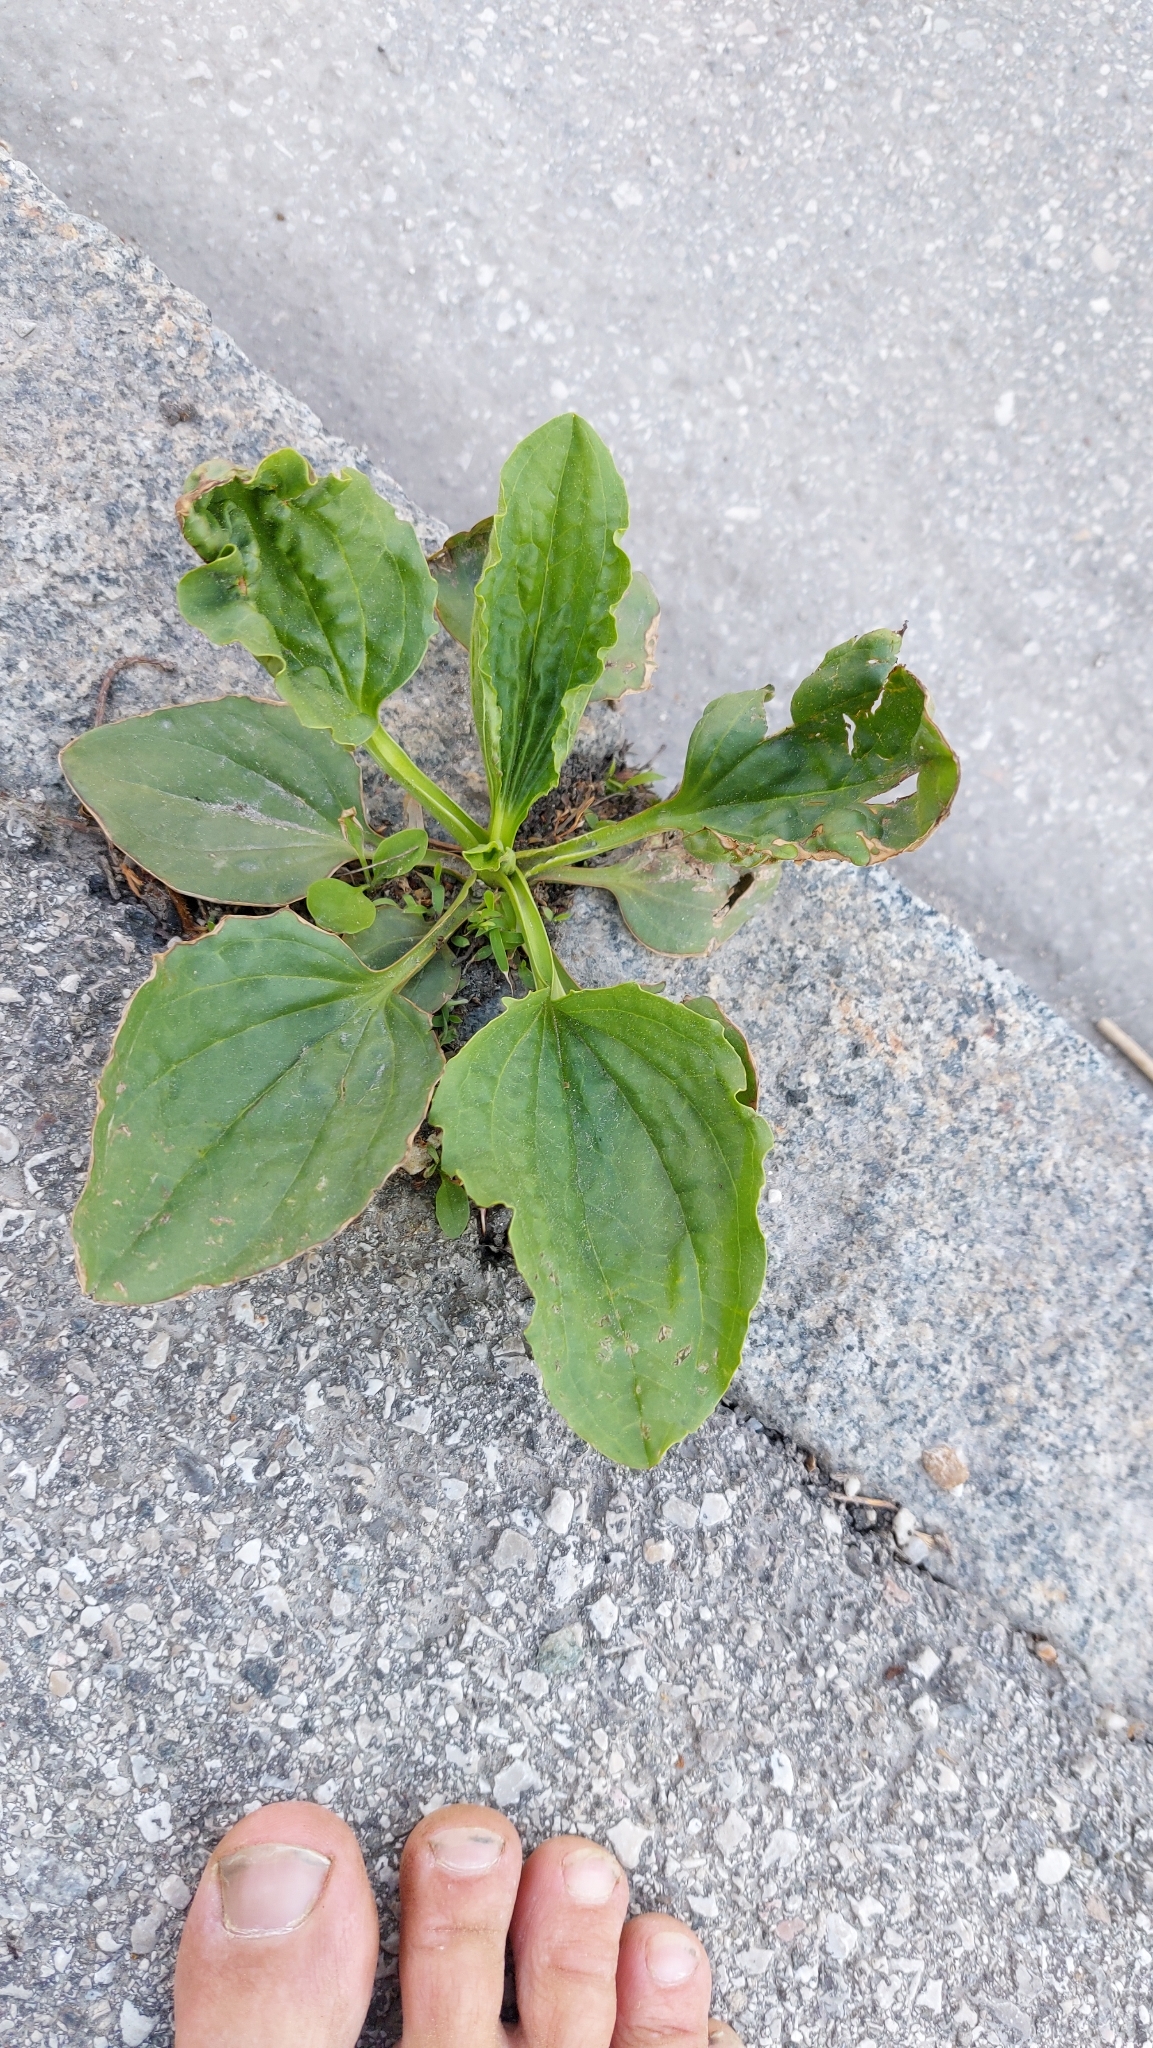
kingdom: Plantae
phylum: Tracheophyta
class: Magnoliopsida
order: Lamiales
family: Plantaginaceae
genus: Plantago
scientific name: Plantago major
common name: Common plantain
